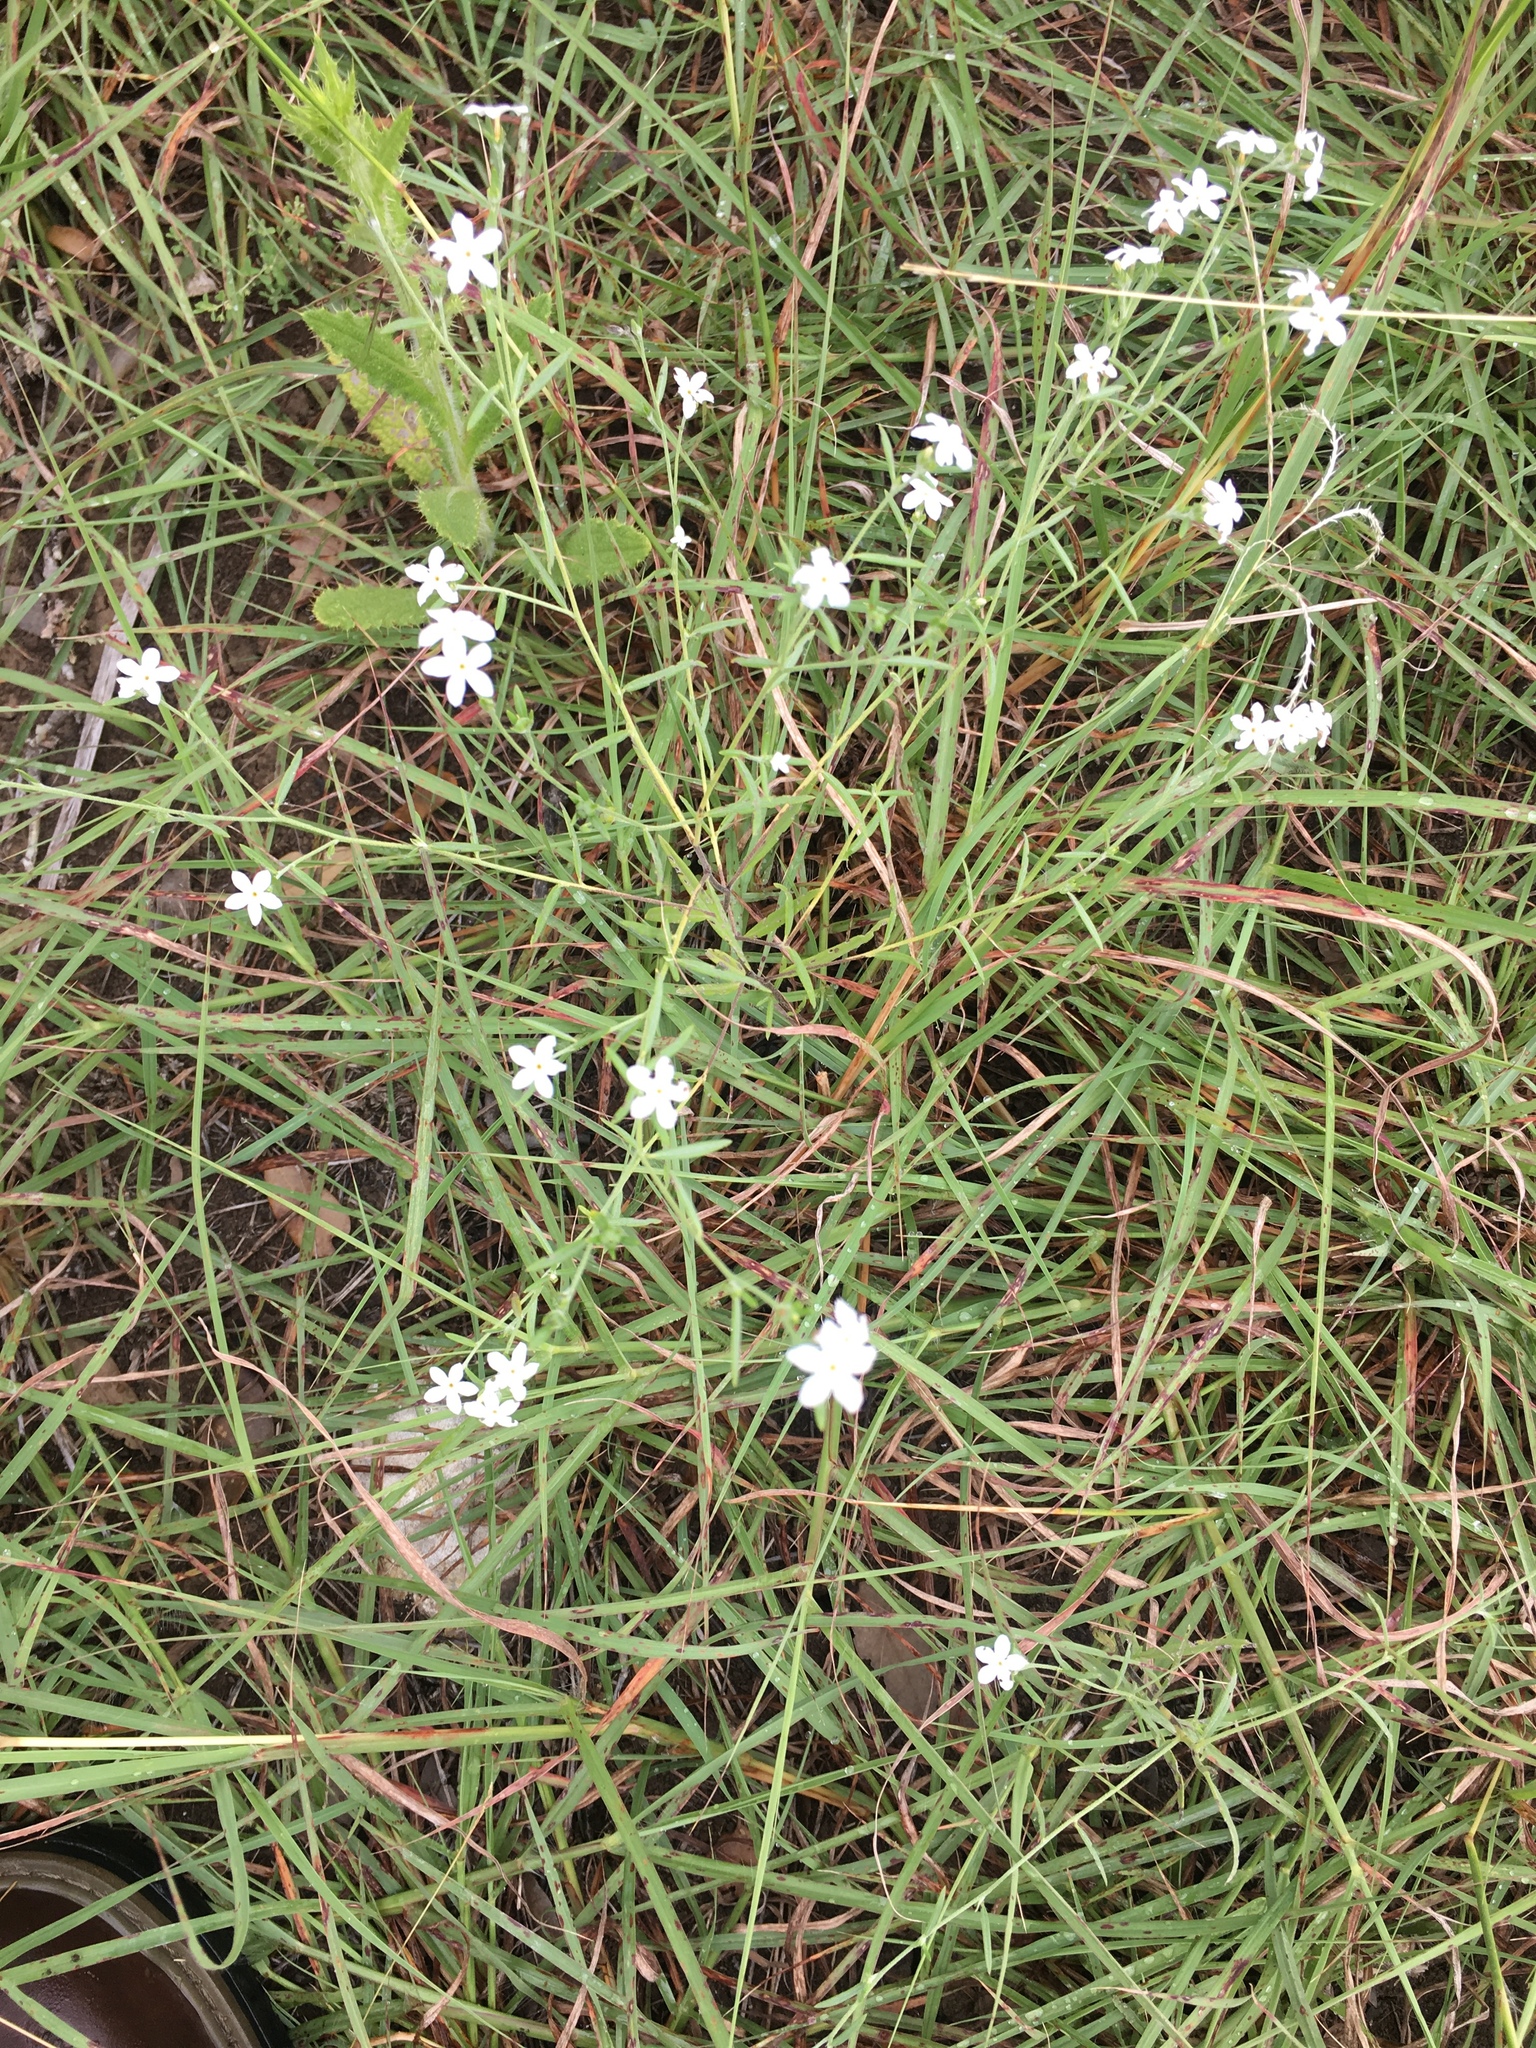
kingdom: Plantae
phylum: Tracheophyta
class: Magnoliopsida
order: Boraginales
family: Heliotropiaceae
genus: Euploca
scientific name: Euploca tenella
